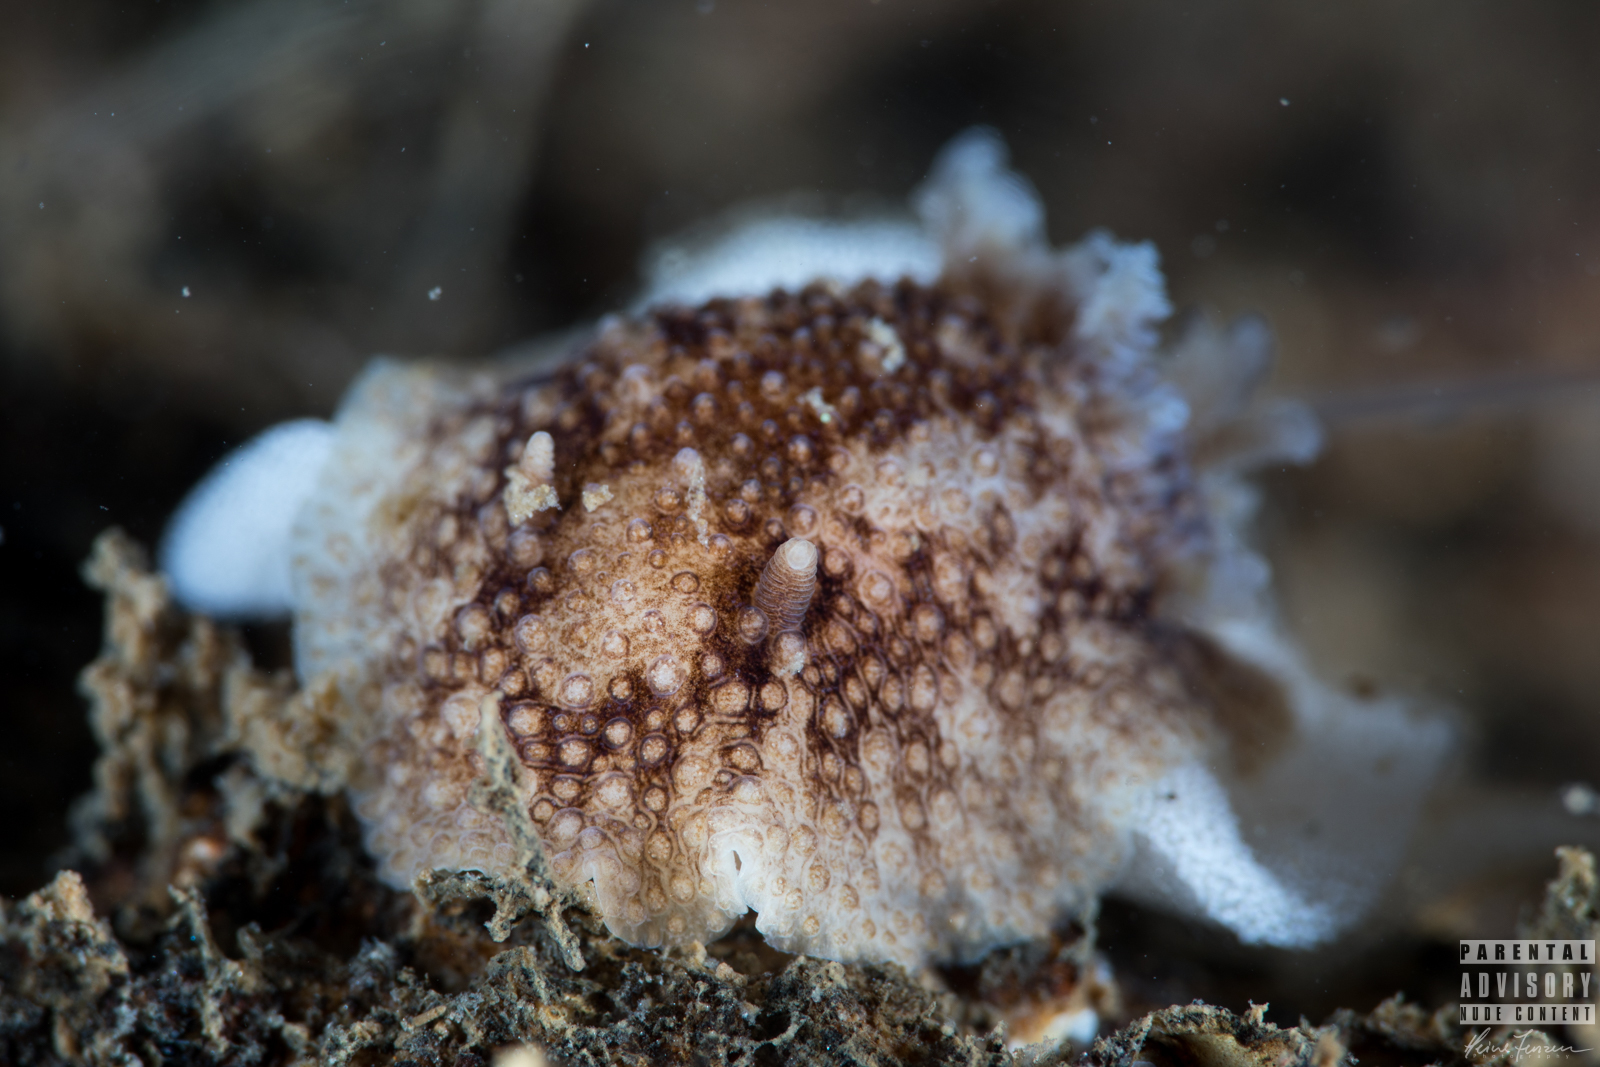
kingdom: Animalia
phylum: Mollusca
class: Gastropoda
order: Nudibranchia
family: Onchidorididae
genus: Onchidoris
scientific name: Onchidoris bilamellata
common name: Barnacle-eating onchidoris
